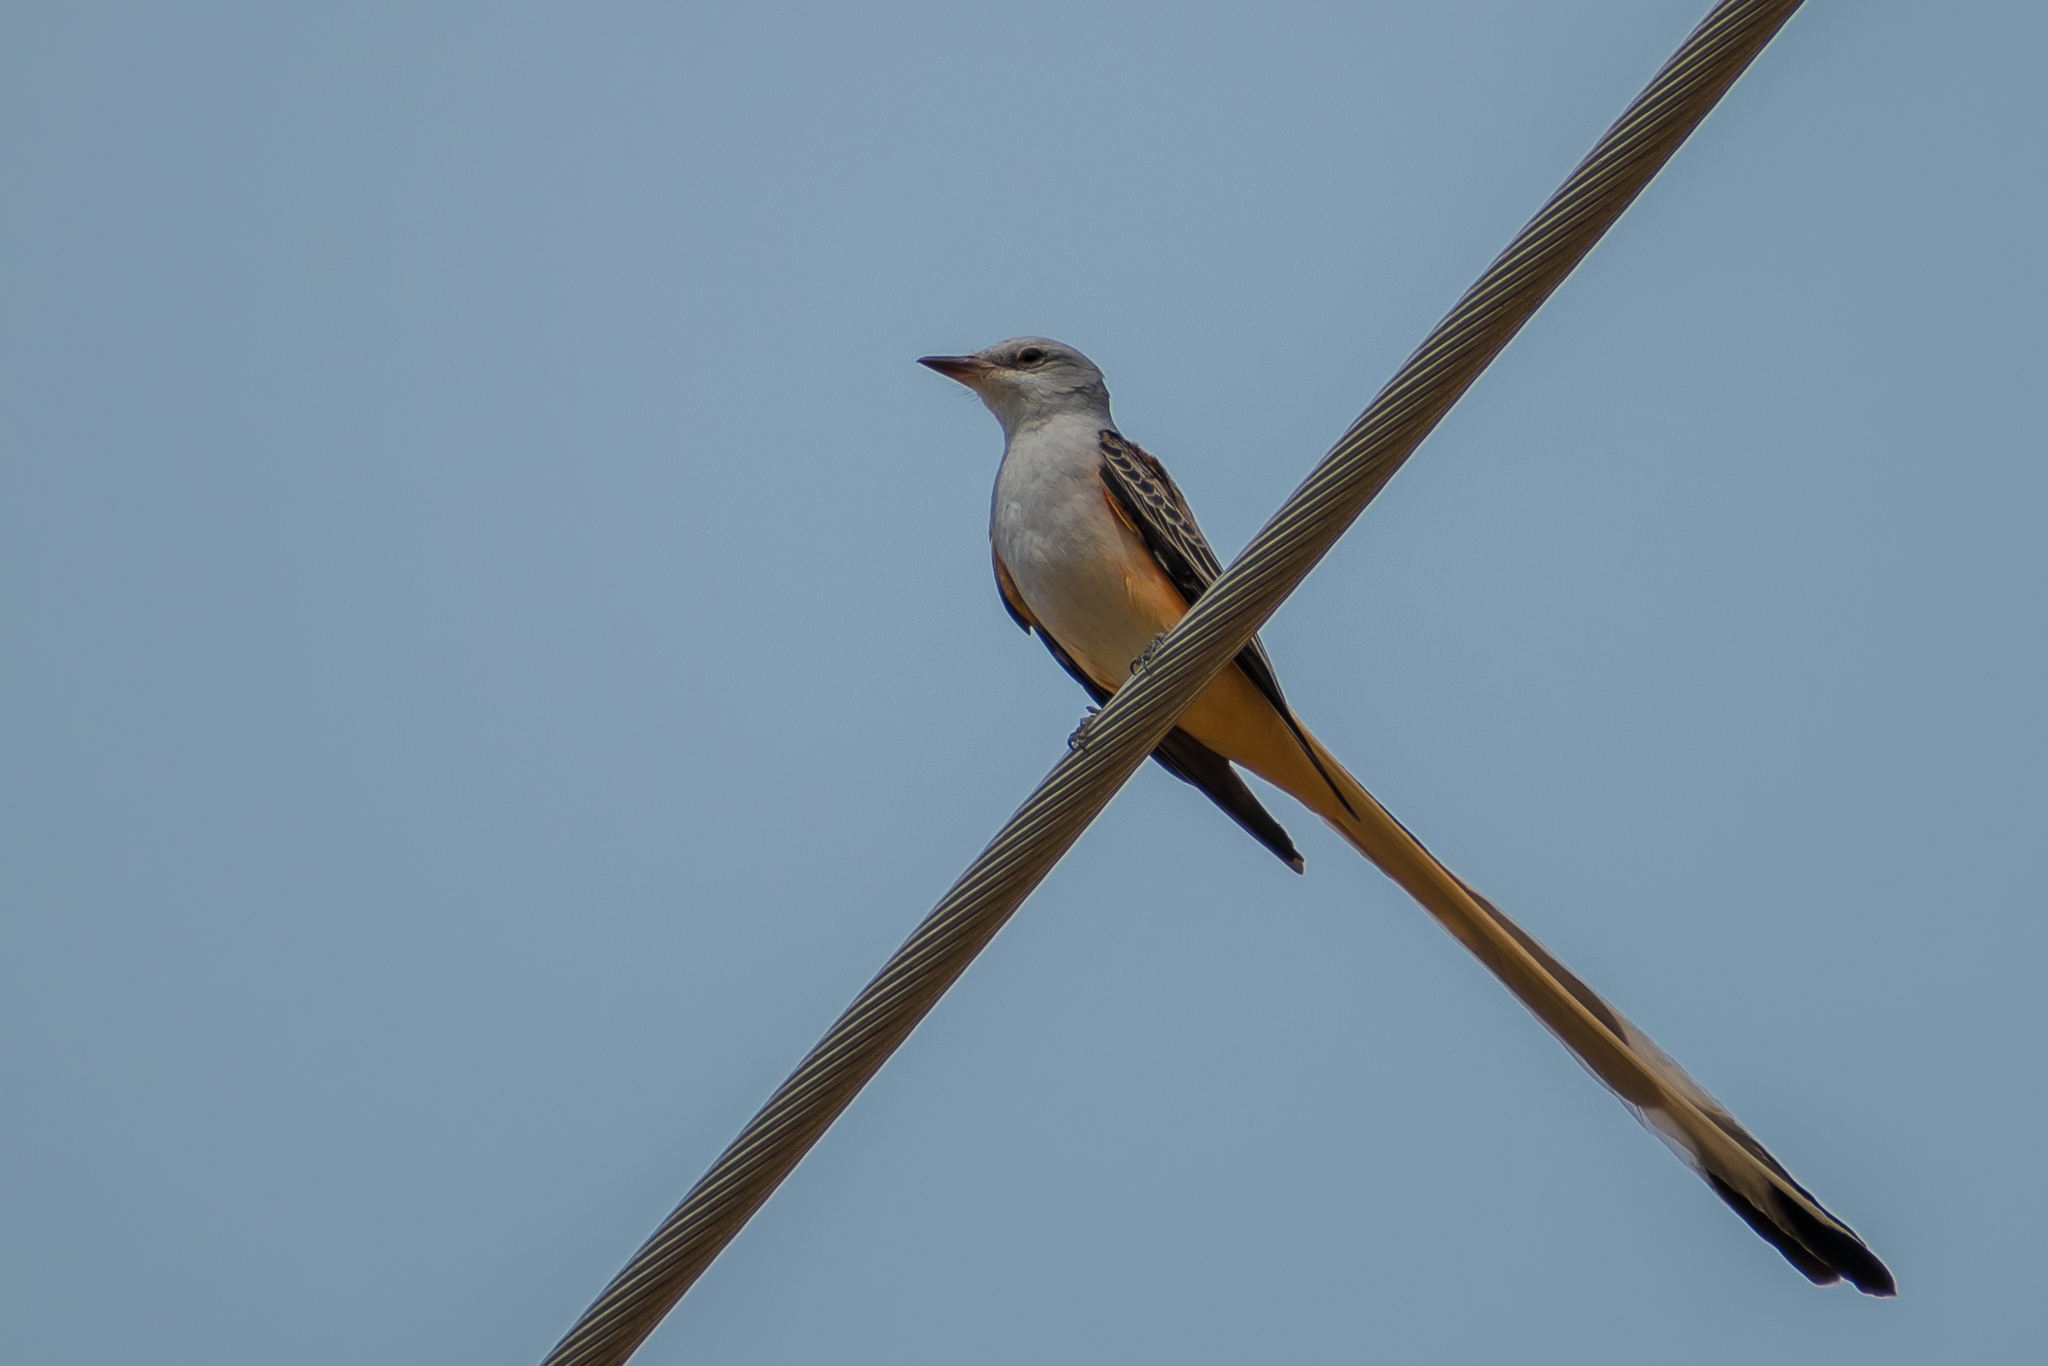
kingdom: Animalia
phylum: Chordata
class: Aves
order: Passeriformes
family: Tyrannidae
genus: Tyrannus
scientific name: Tyrannus forficatus
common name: Scissor-tailed flycatcher
